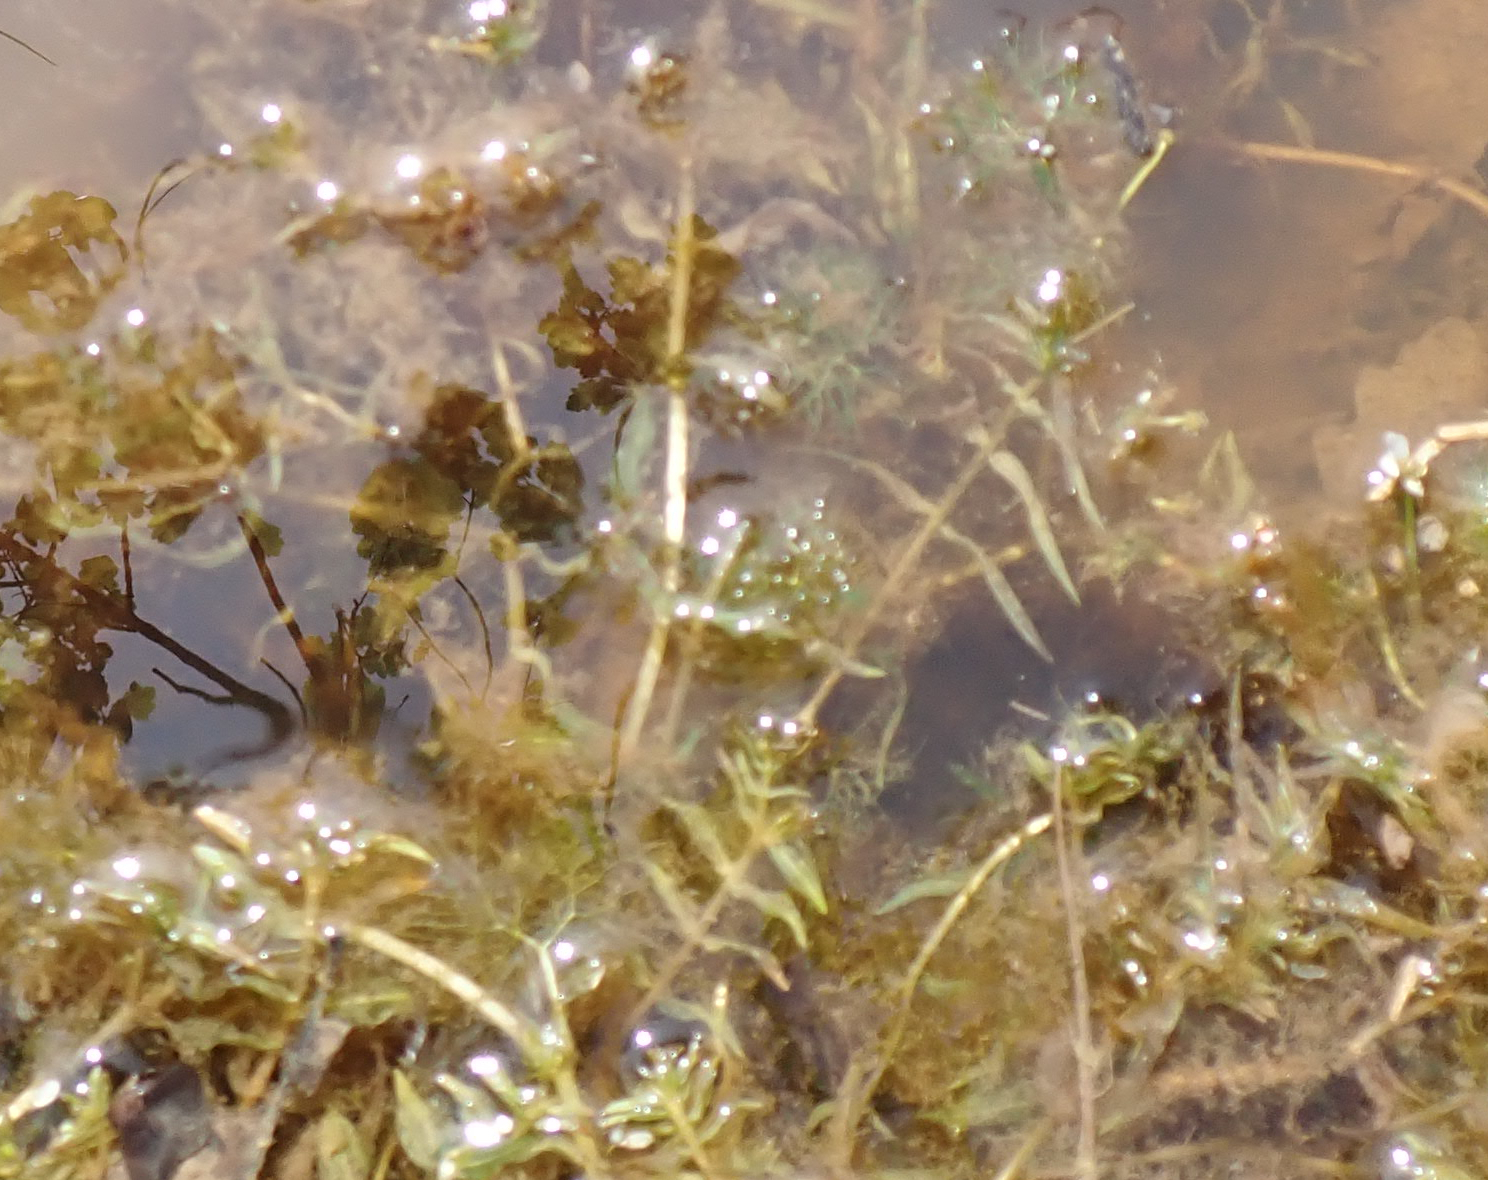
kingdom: Plantae
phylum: Tracheophyta
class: Liliopsida
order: Alismatales
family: Potamogetonaceae
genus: Groenlandia
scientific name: Groenlandia densa
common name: Opposite-leaved pondweed
